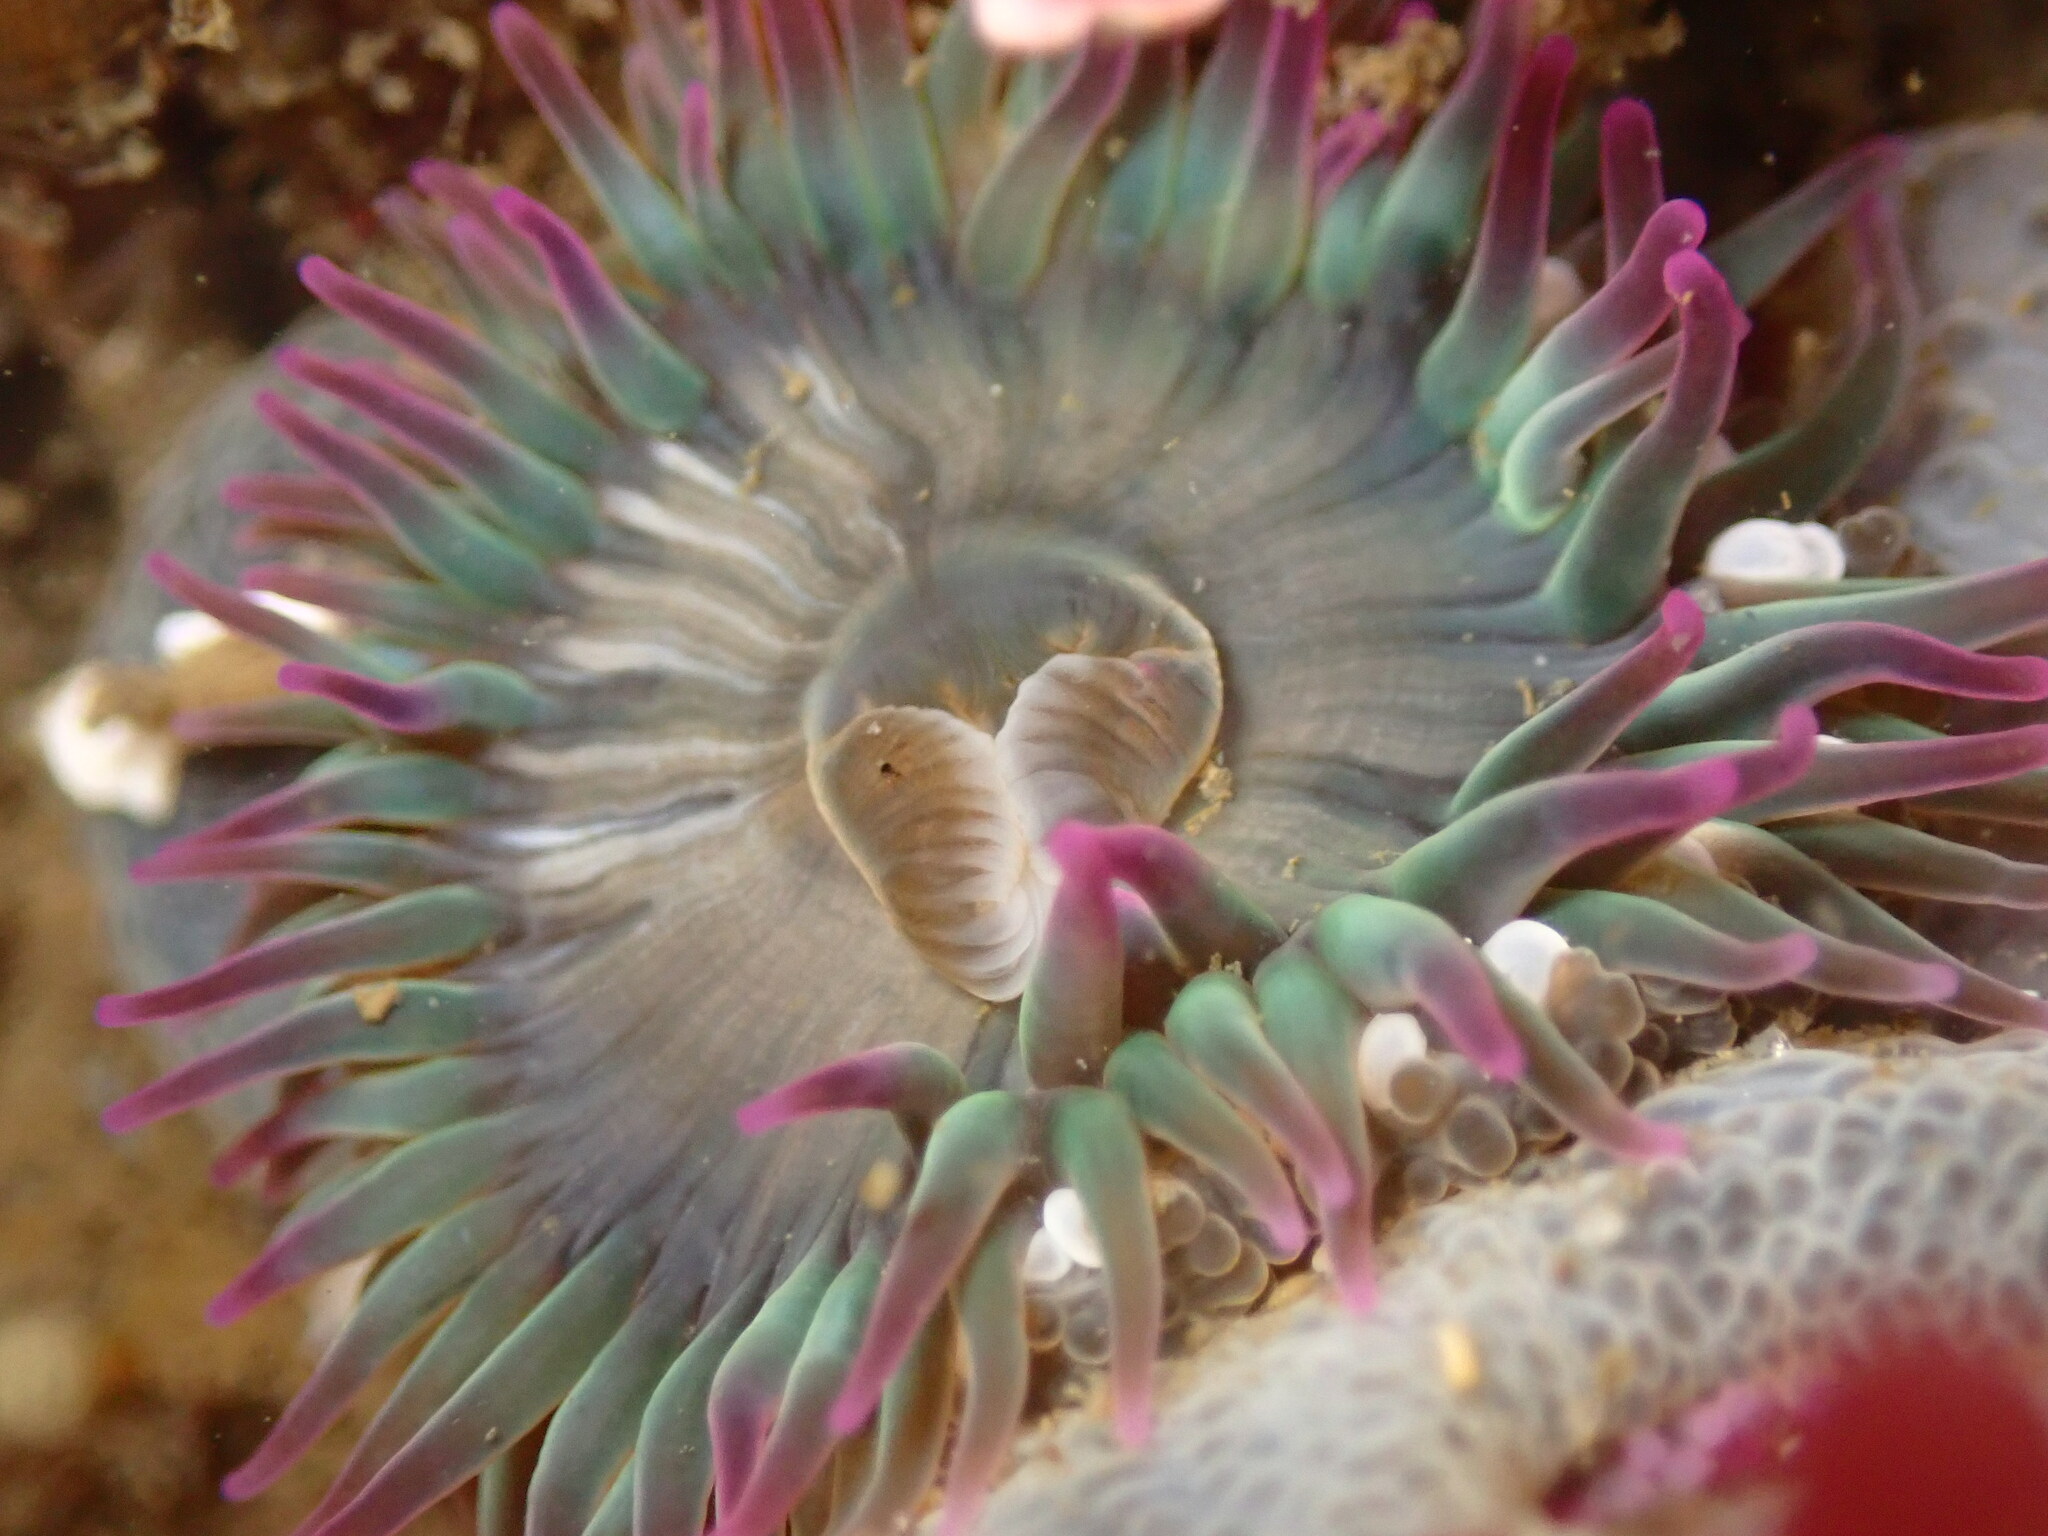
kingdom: Animalia
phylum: Cnidaria
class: Anthozoa
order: Actiniaria
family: Actiniidae
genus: Anthopleura
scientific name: Anthopleura elegantissima
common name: Clonal anemone
